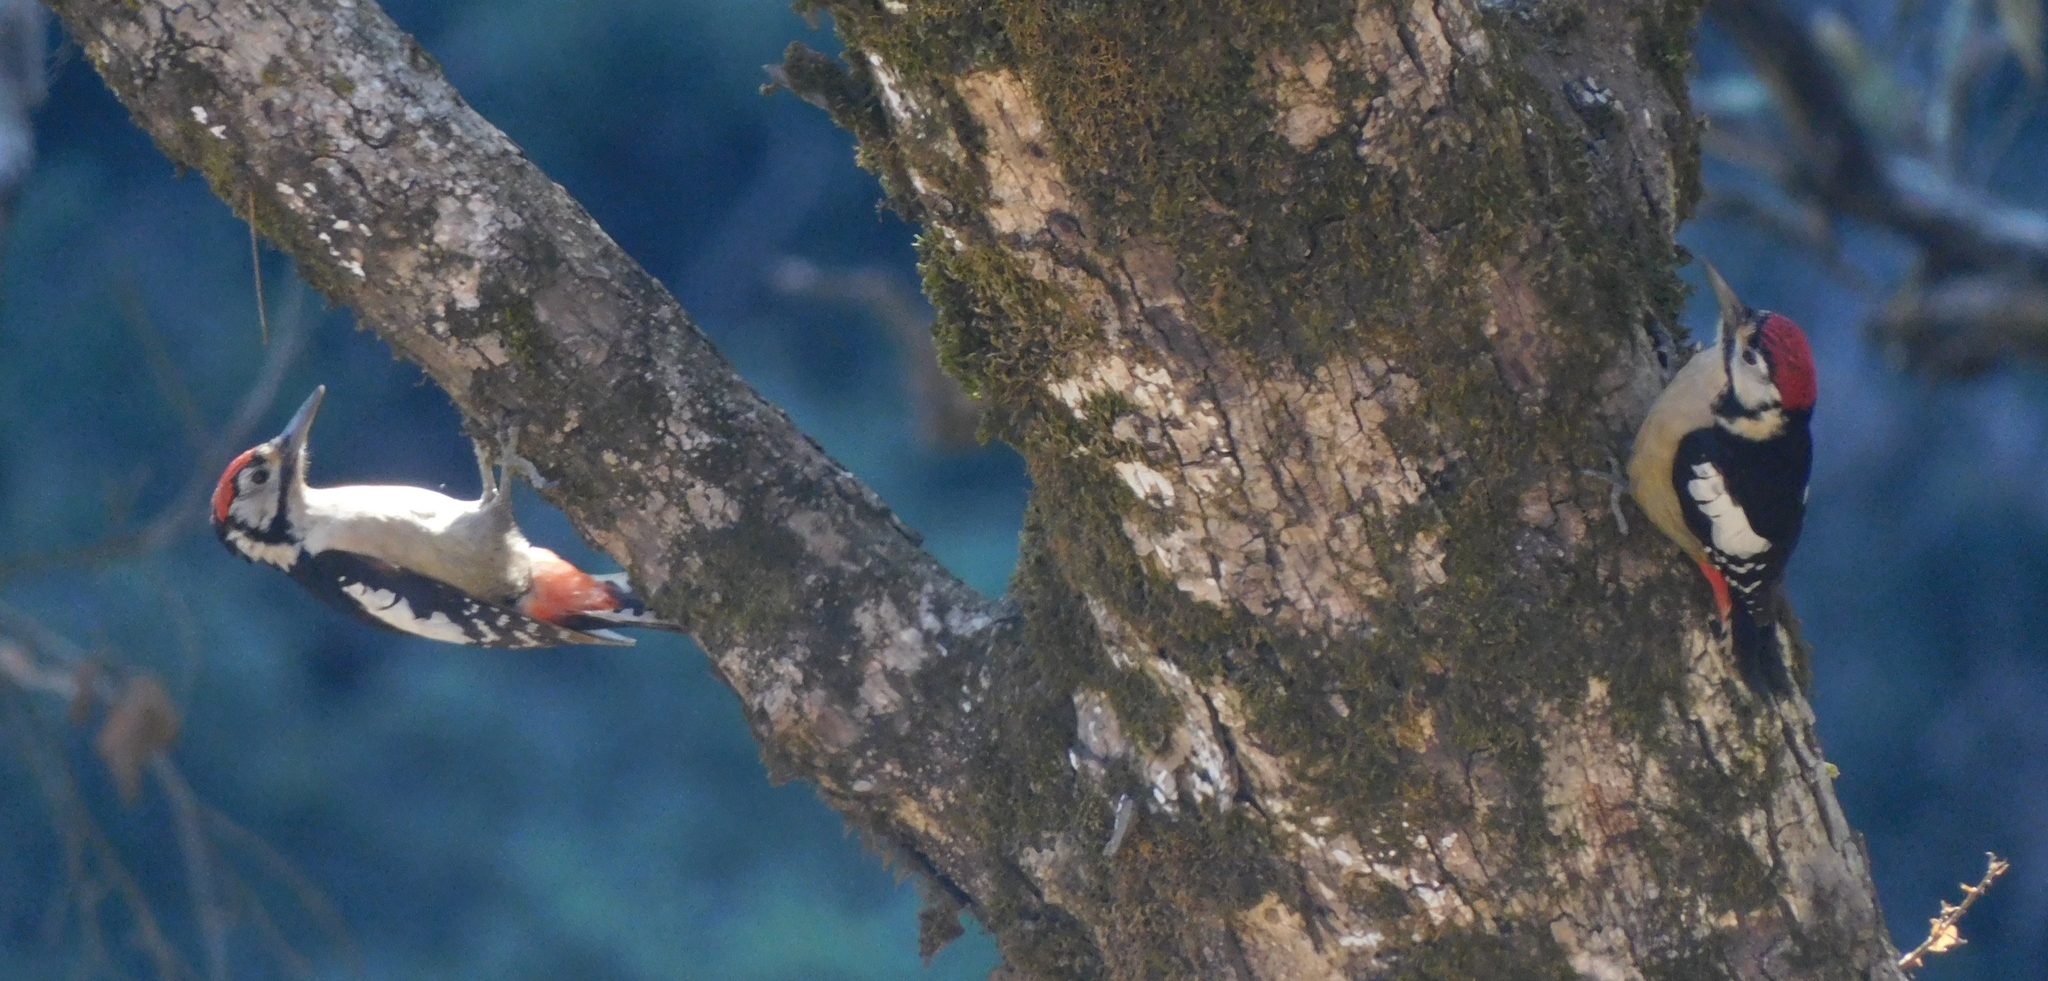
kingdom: Animalia
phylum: Chordata
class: Aves
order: Piciformes
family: Picidae
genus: Dendrocopos
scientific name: Dendrocopos himalayensis
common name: Himalayan woodpecker
